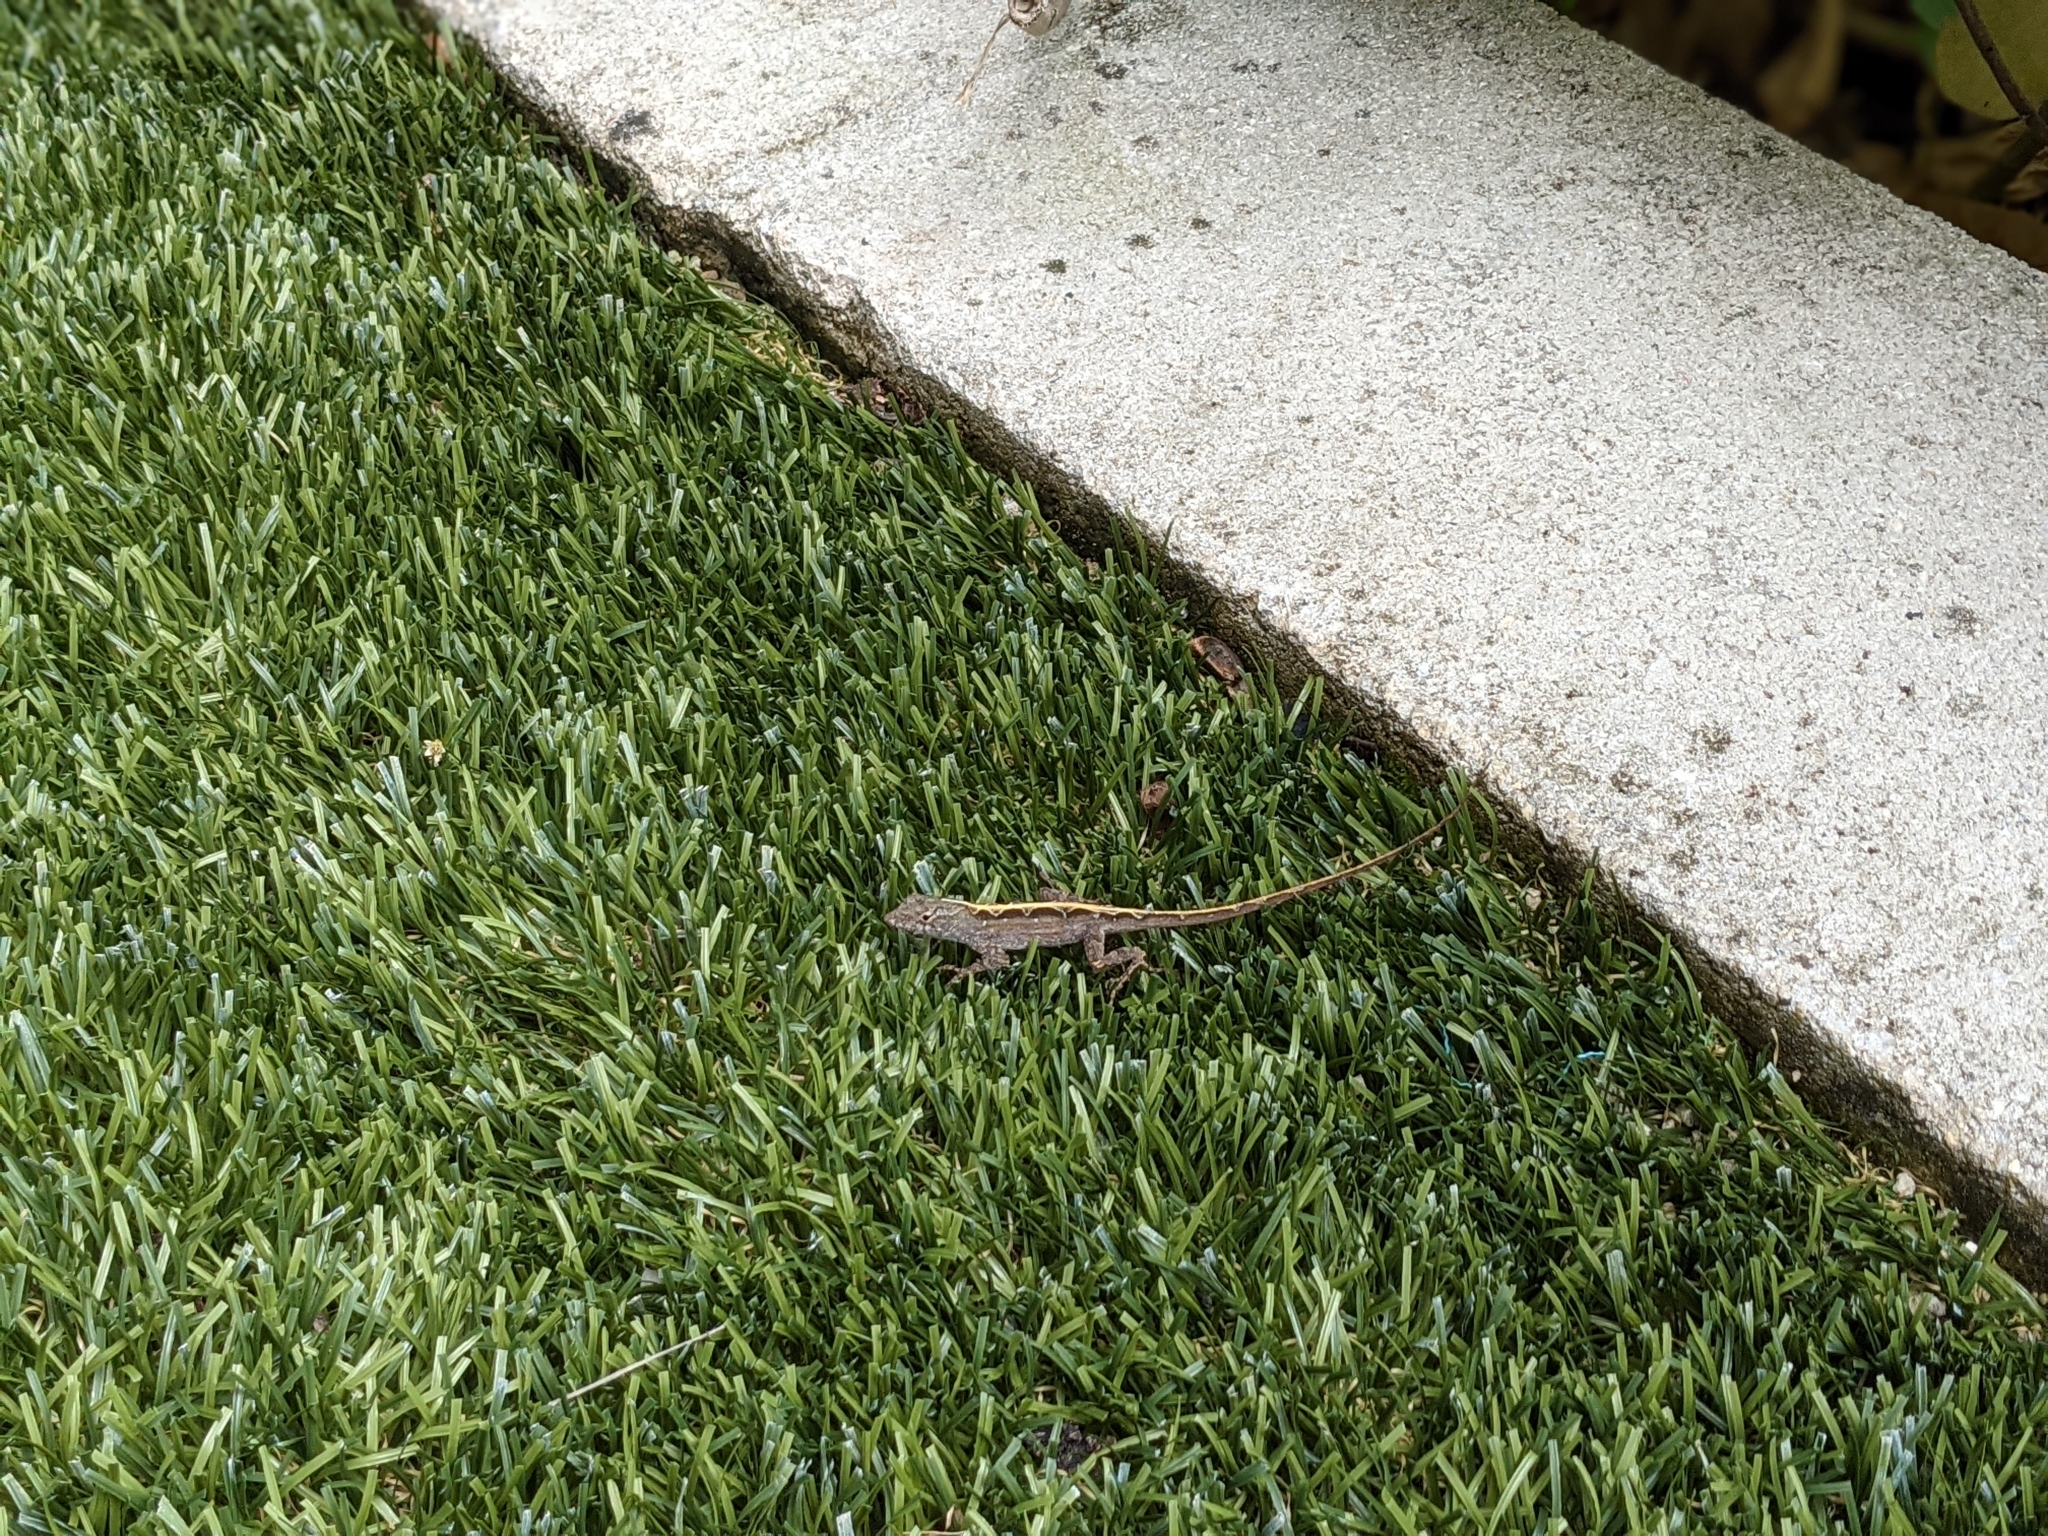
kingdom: Animalia
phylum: Chordata
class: Squamata
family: Dactyloidae
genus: Anolis
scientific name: Anolis sagrei
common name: Brown anole
